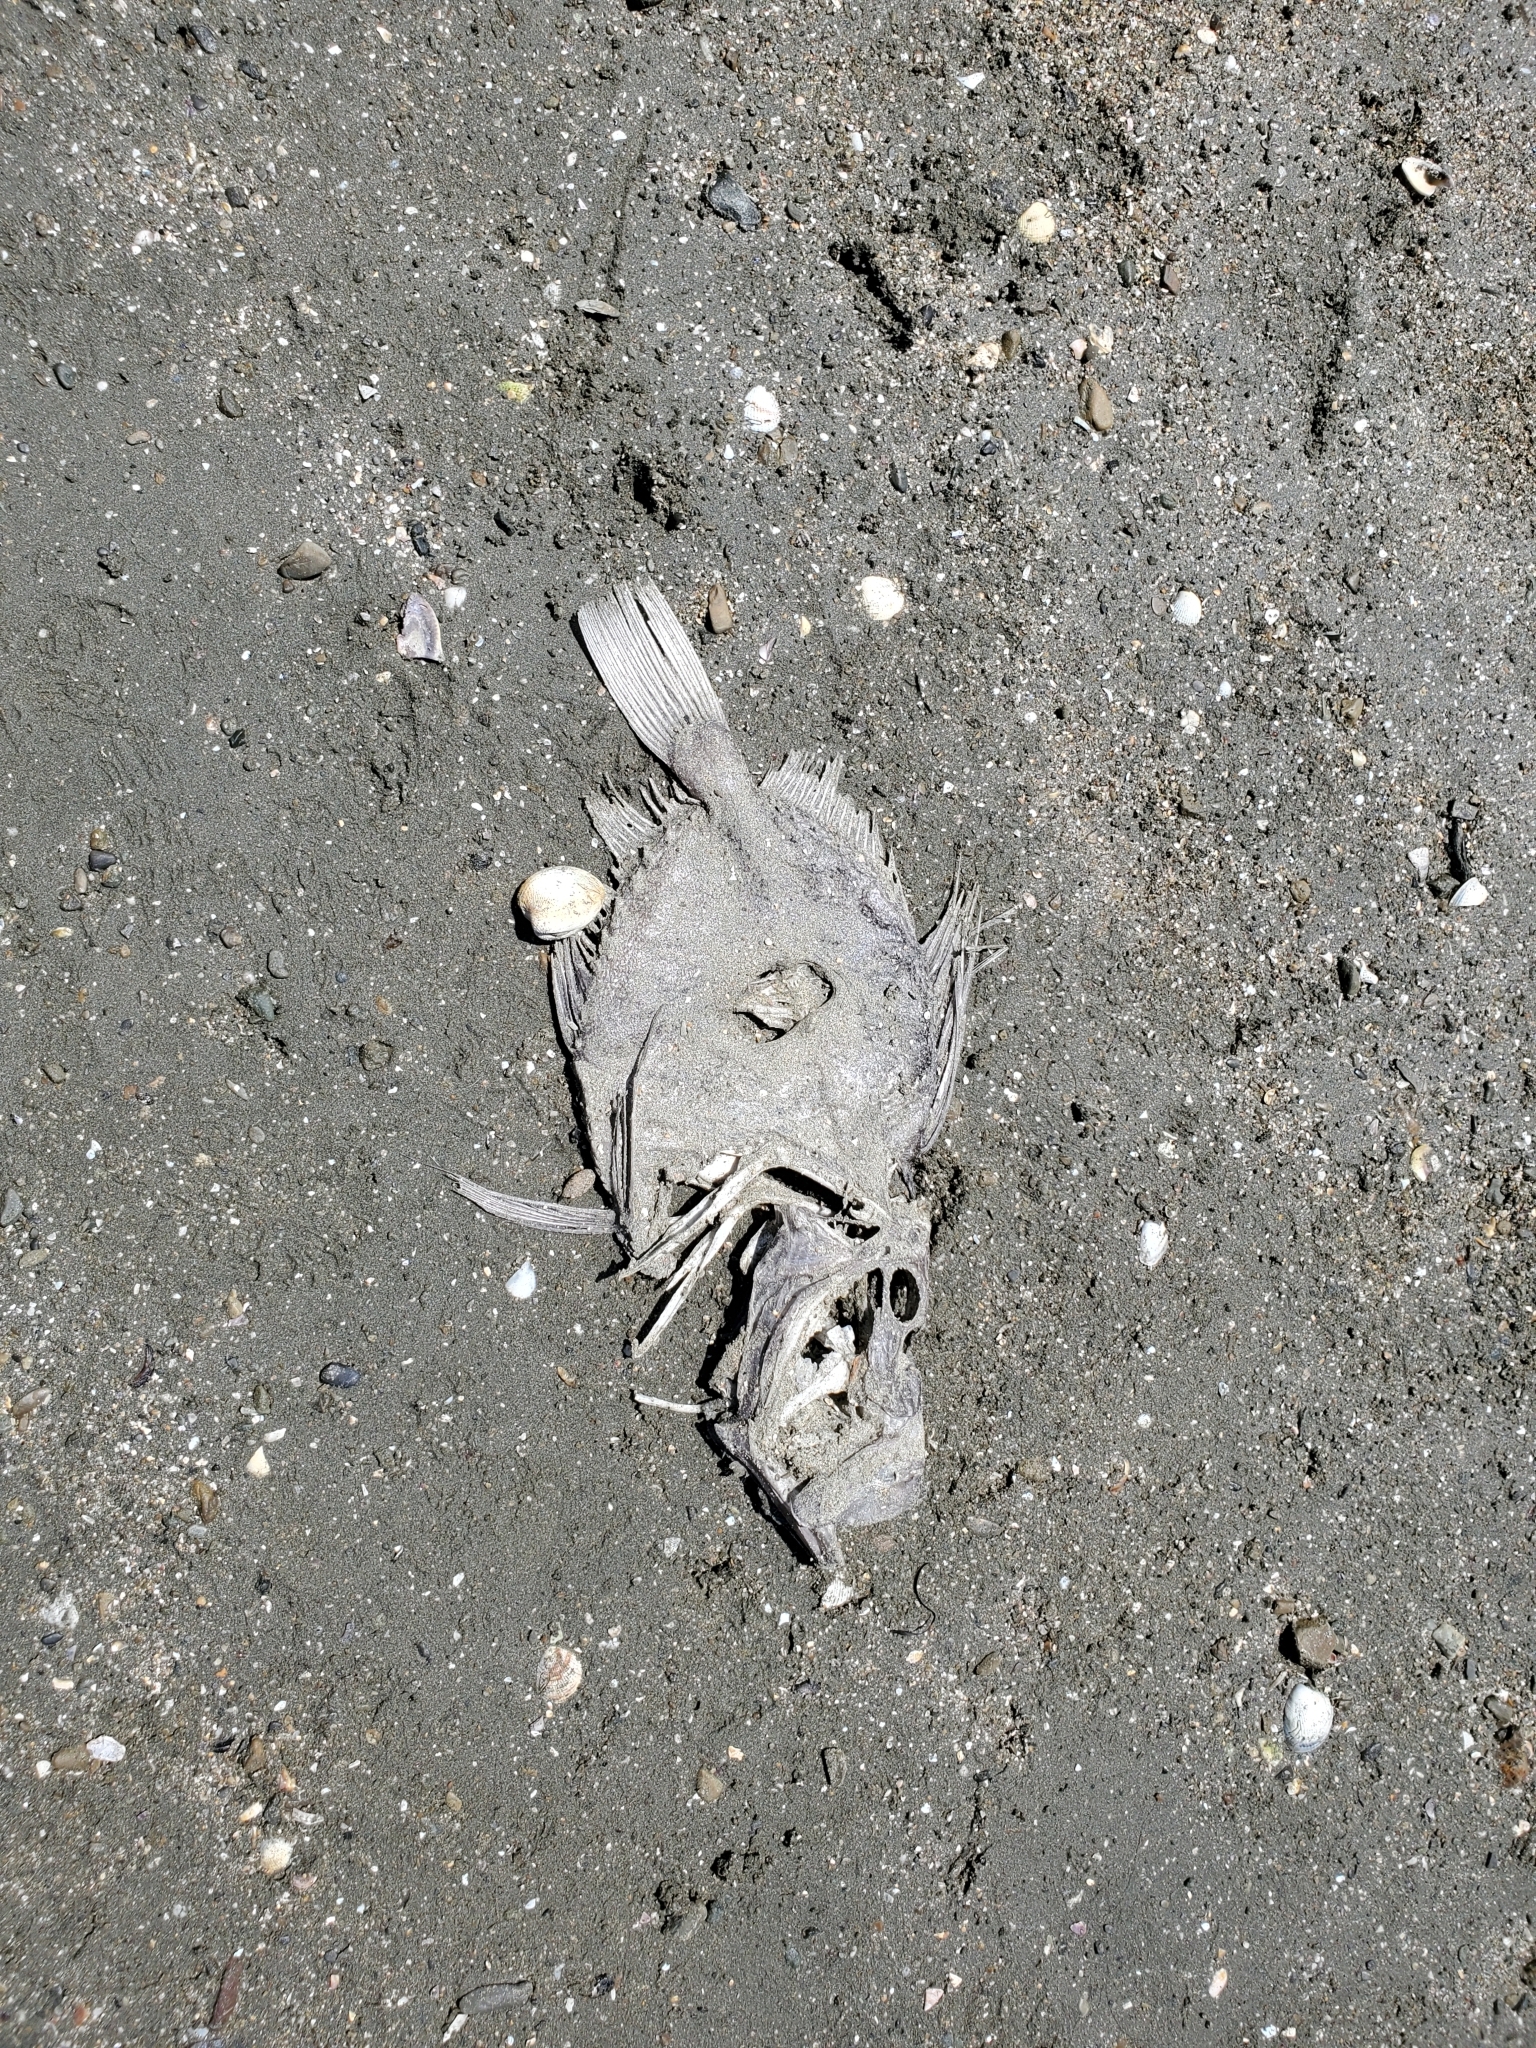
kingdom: Animalia
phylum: Chordata
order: Zeiformes
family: Zeidae
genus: Zeus
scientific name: Zeus faber
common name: John dory
